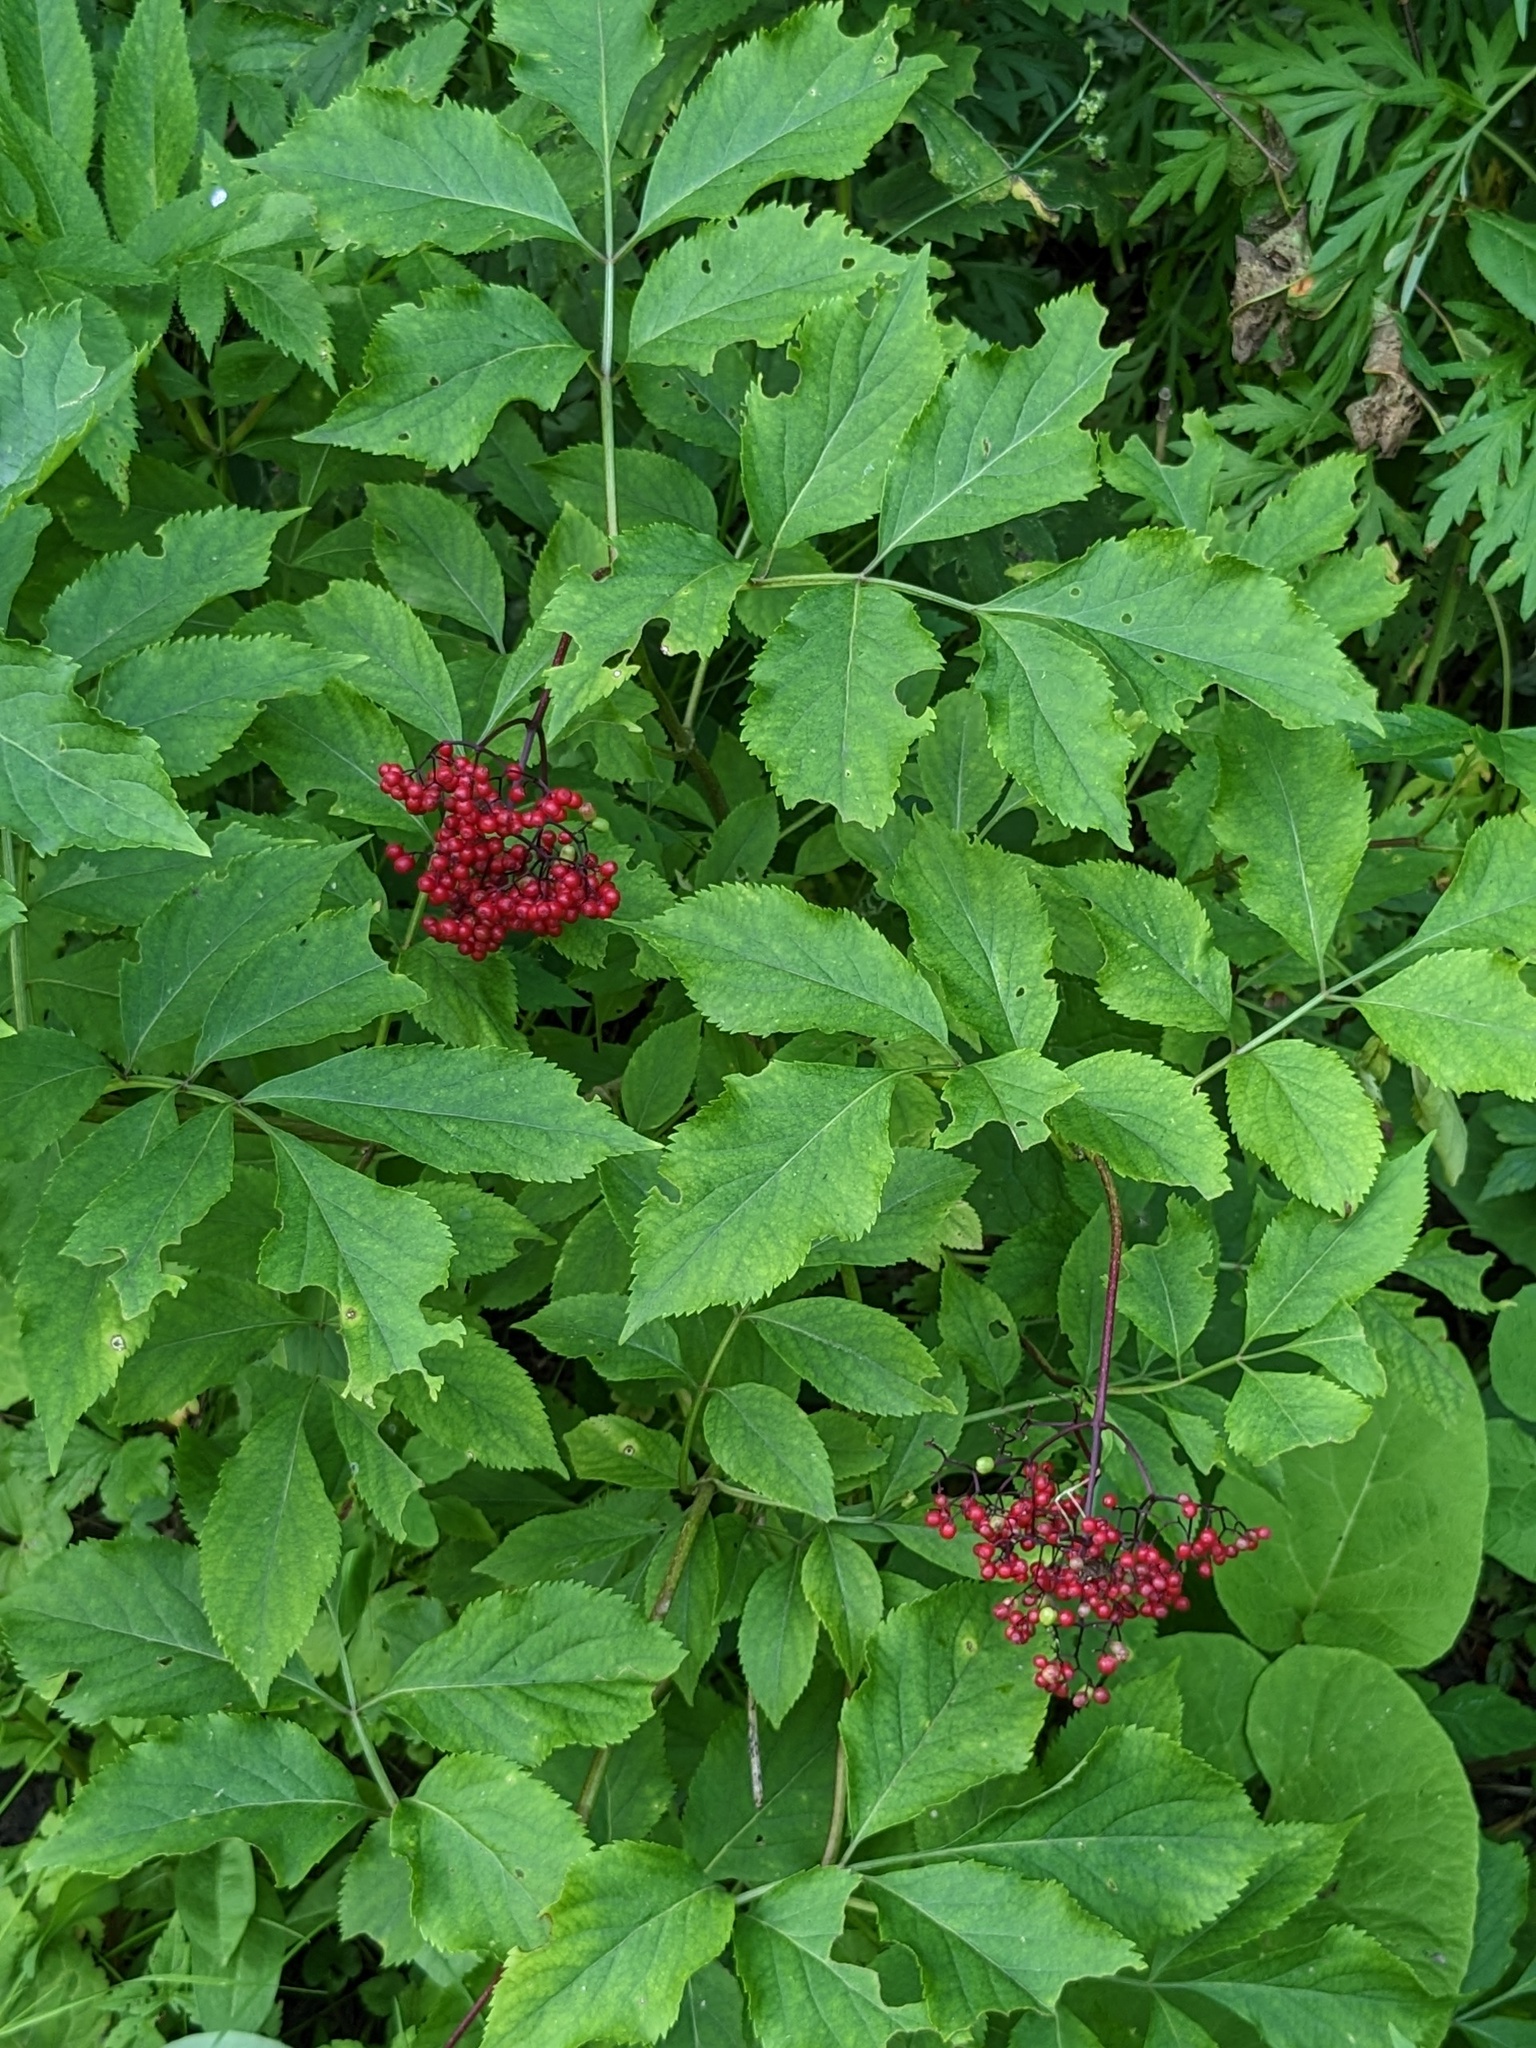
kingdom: Plantae
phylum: Tracheophyta
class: Magnoliopsida
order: Dipsacales
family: Viburnaceae
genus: Sambucus
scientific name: Sambucus williamsii
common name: William's elder
